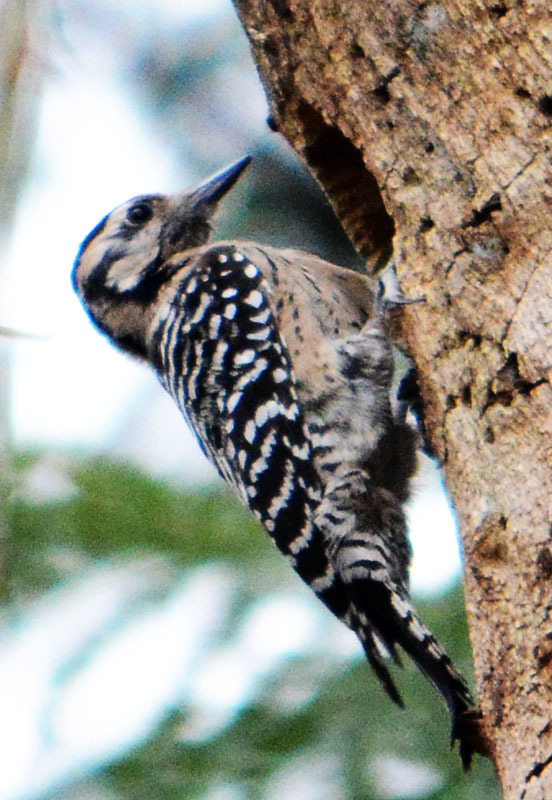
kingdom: Animalia
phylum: Chordata
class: Aves
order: Piciformes
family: Picidae
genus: Dryobates
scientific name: Dryobates scalaris
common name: Ladder-backed woodpecker
